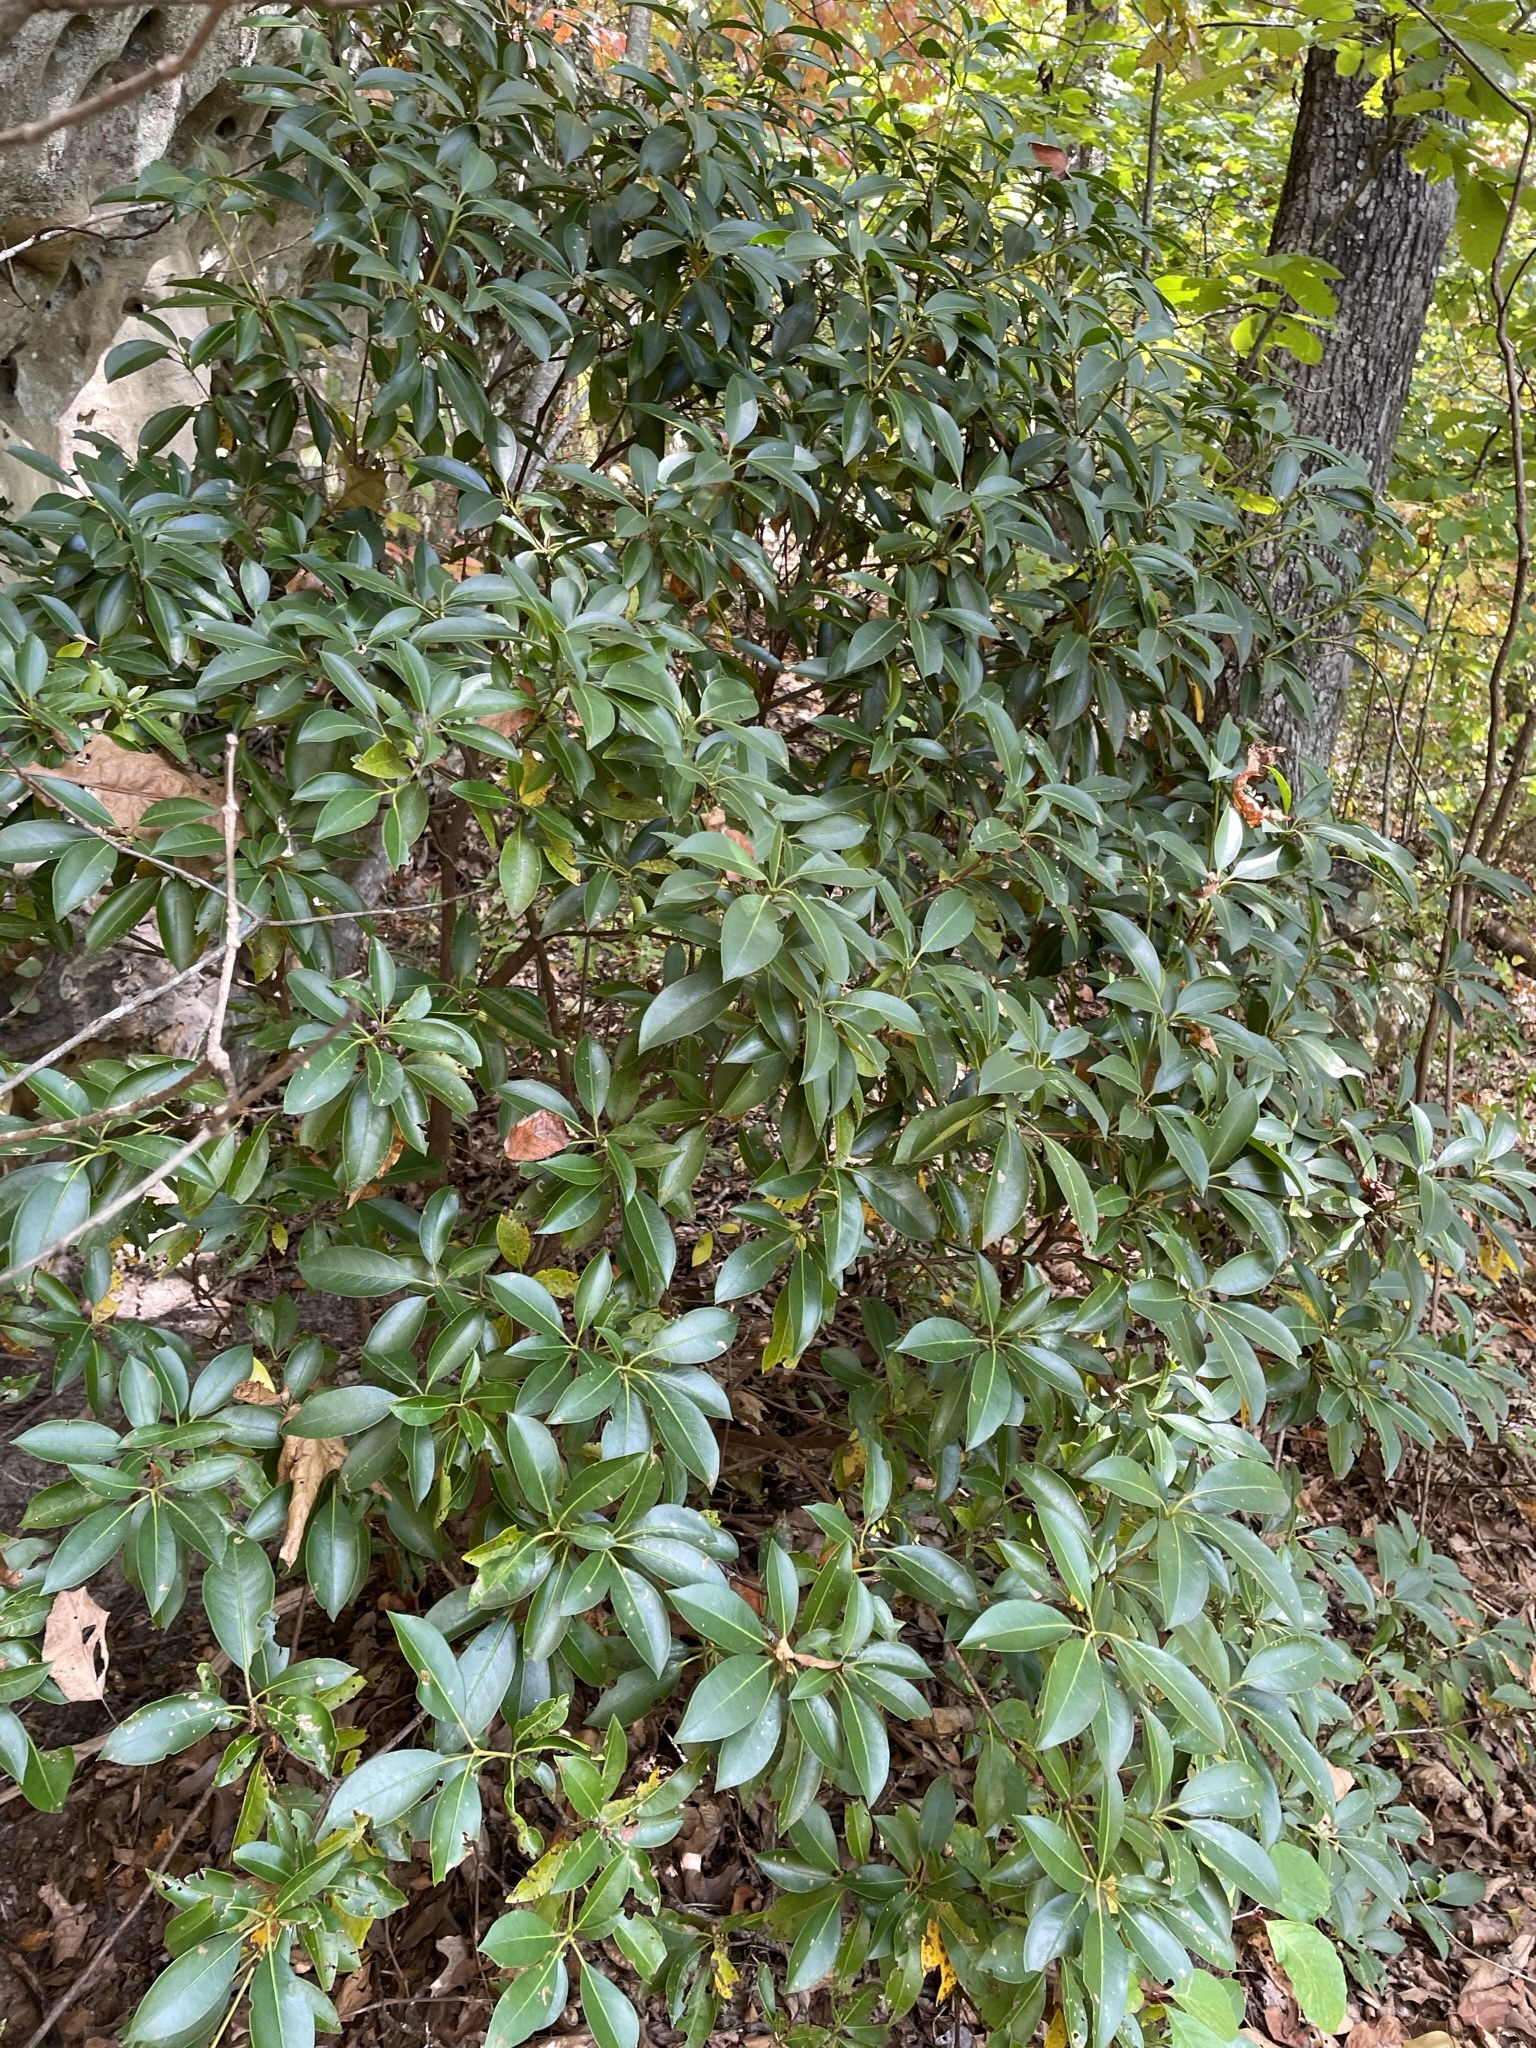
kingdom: Plantae
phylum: Tracheophyta
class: Magnoliopsida
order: Ericales
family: Ericaceae
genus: Kalmia
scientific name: Kalmia latifolia
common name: Mountain-laurel
